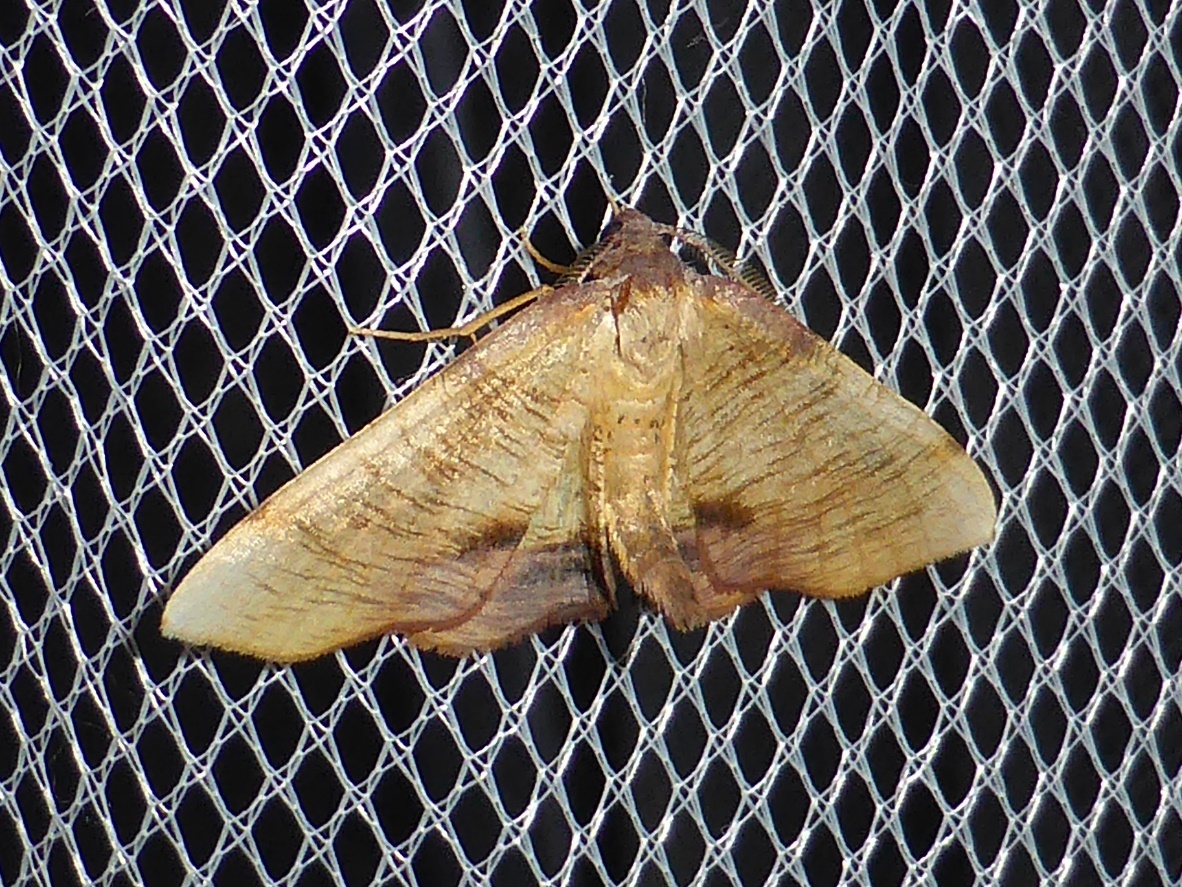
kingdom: Animalia
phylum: Arthropoda
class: Insecta
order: Lepidoptera
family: Geometridae
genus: Plagodis
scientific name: Plagodis dolabraria
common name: Scorched wing
